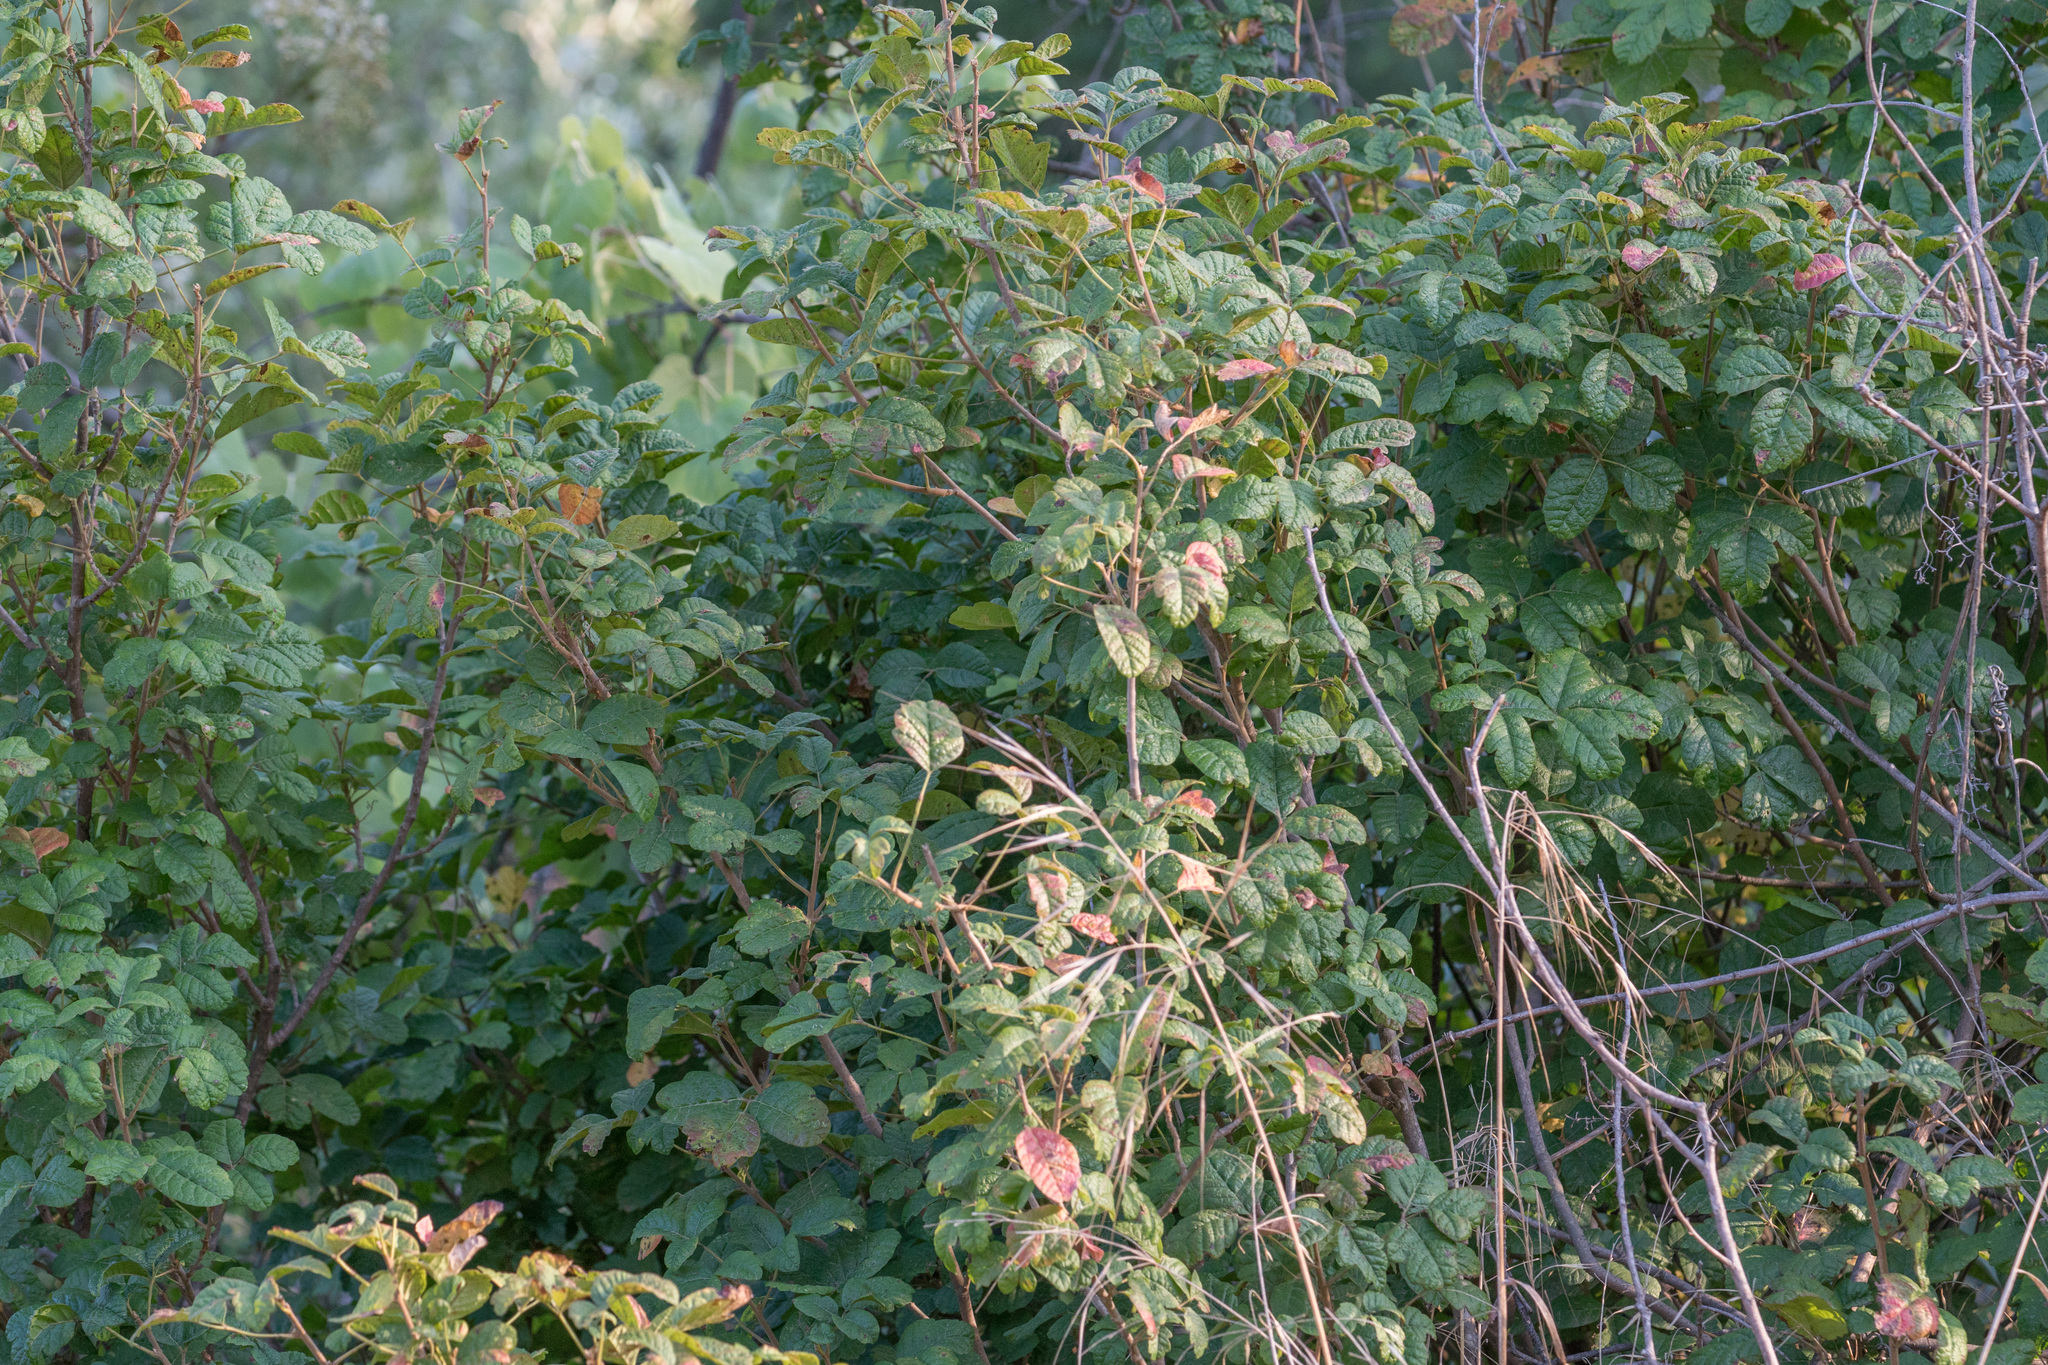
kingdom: Plantae
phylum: Tracheophyta
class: Magnoliopsida
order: Sapindales
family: Anacardiaceae
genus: Toxicodendron
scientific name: Toxicodendron diversilobum
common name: Pacific poison-oak
